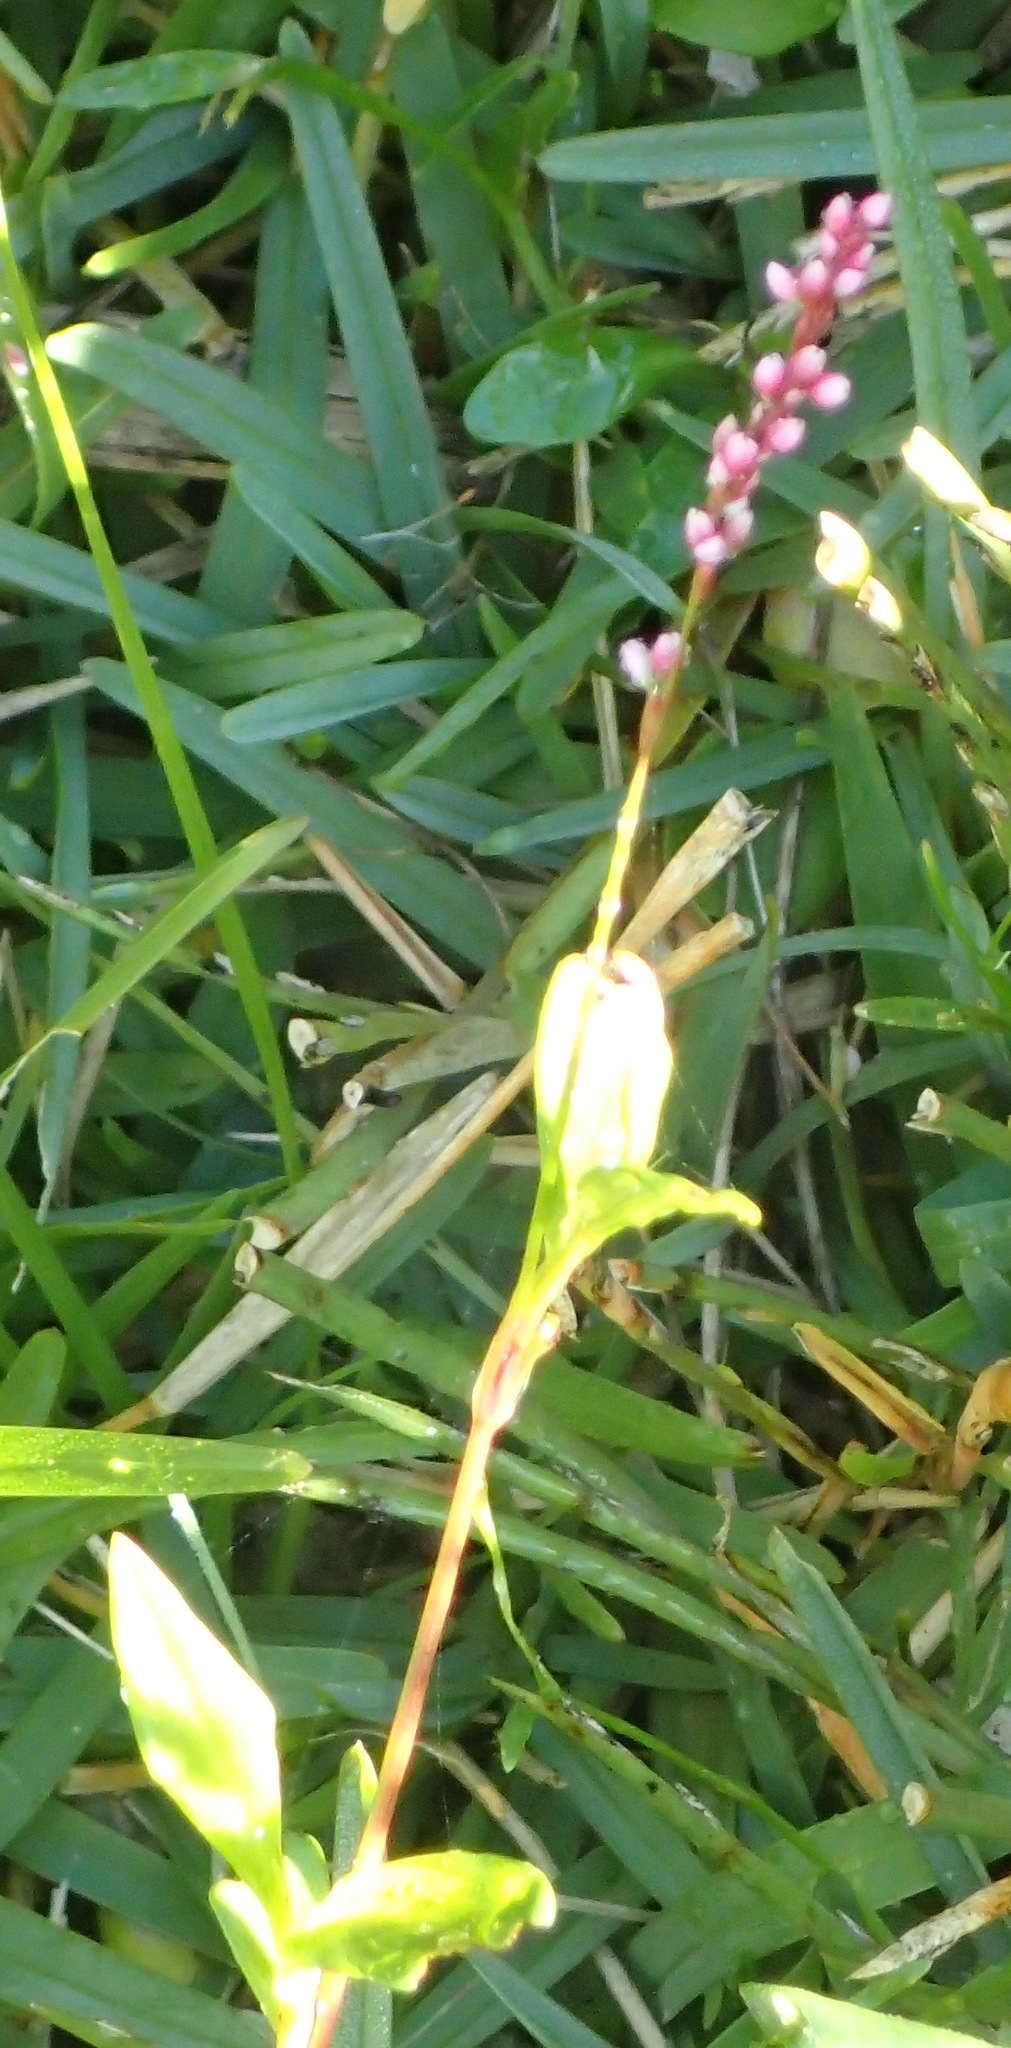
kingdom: Plantae
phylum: Tracheophyta
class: Magnoliopsida
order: Caryophyllales
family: Polygonaceae
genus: Persicaria
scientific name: Persicaria madagascariensis
